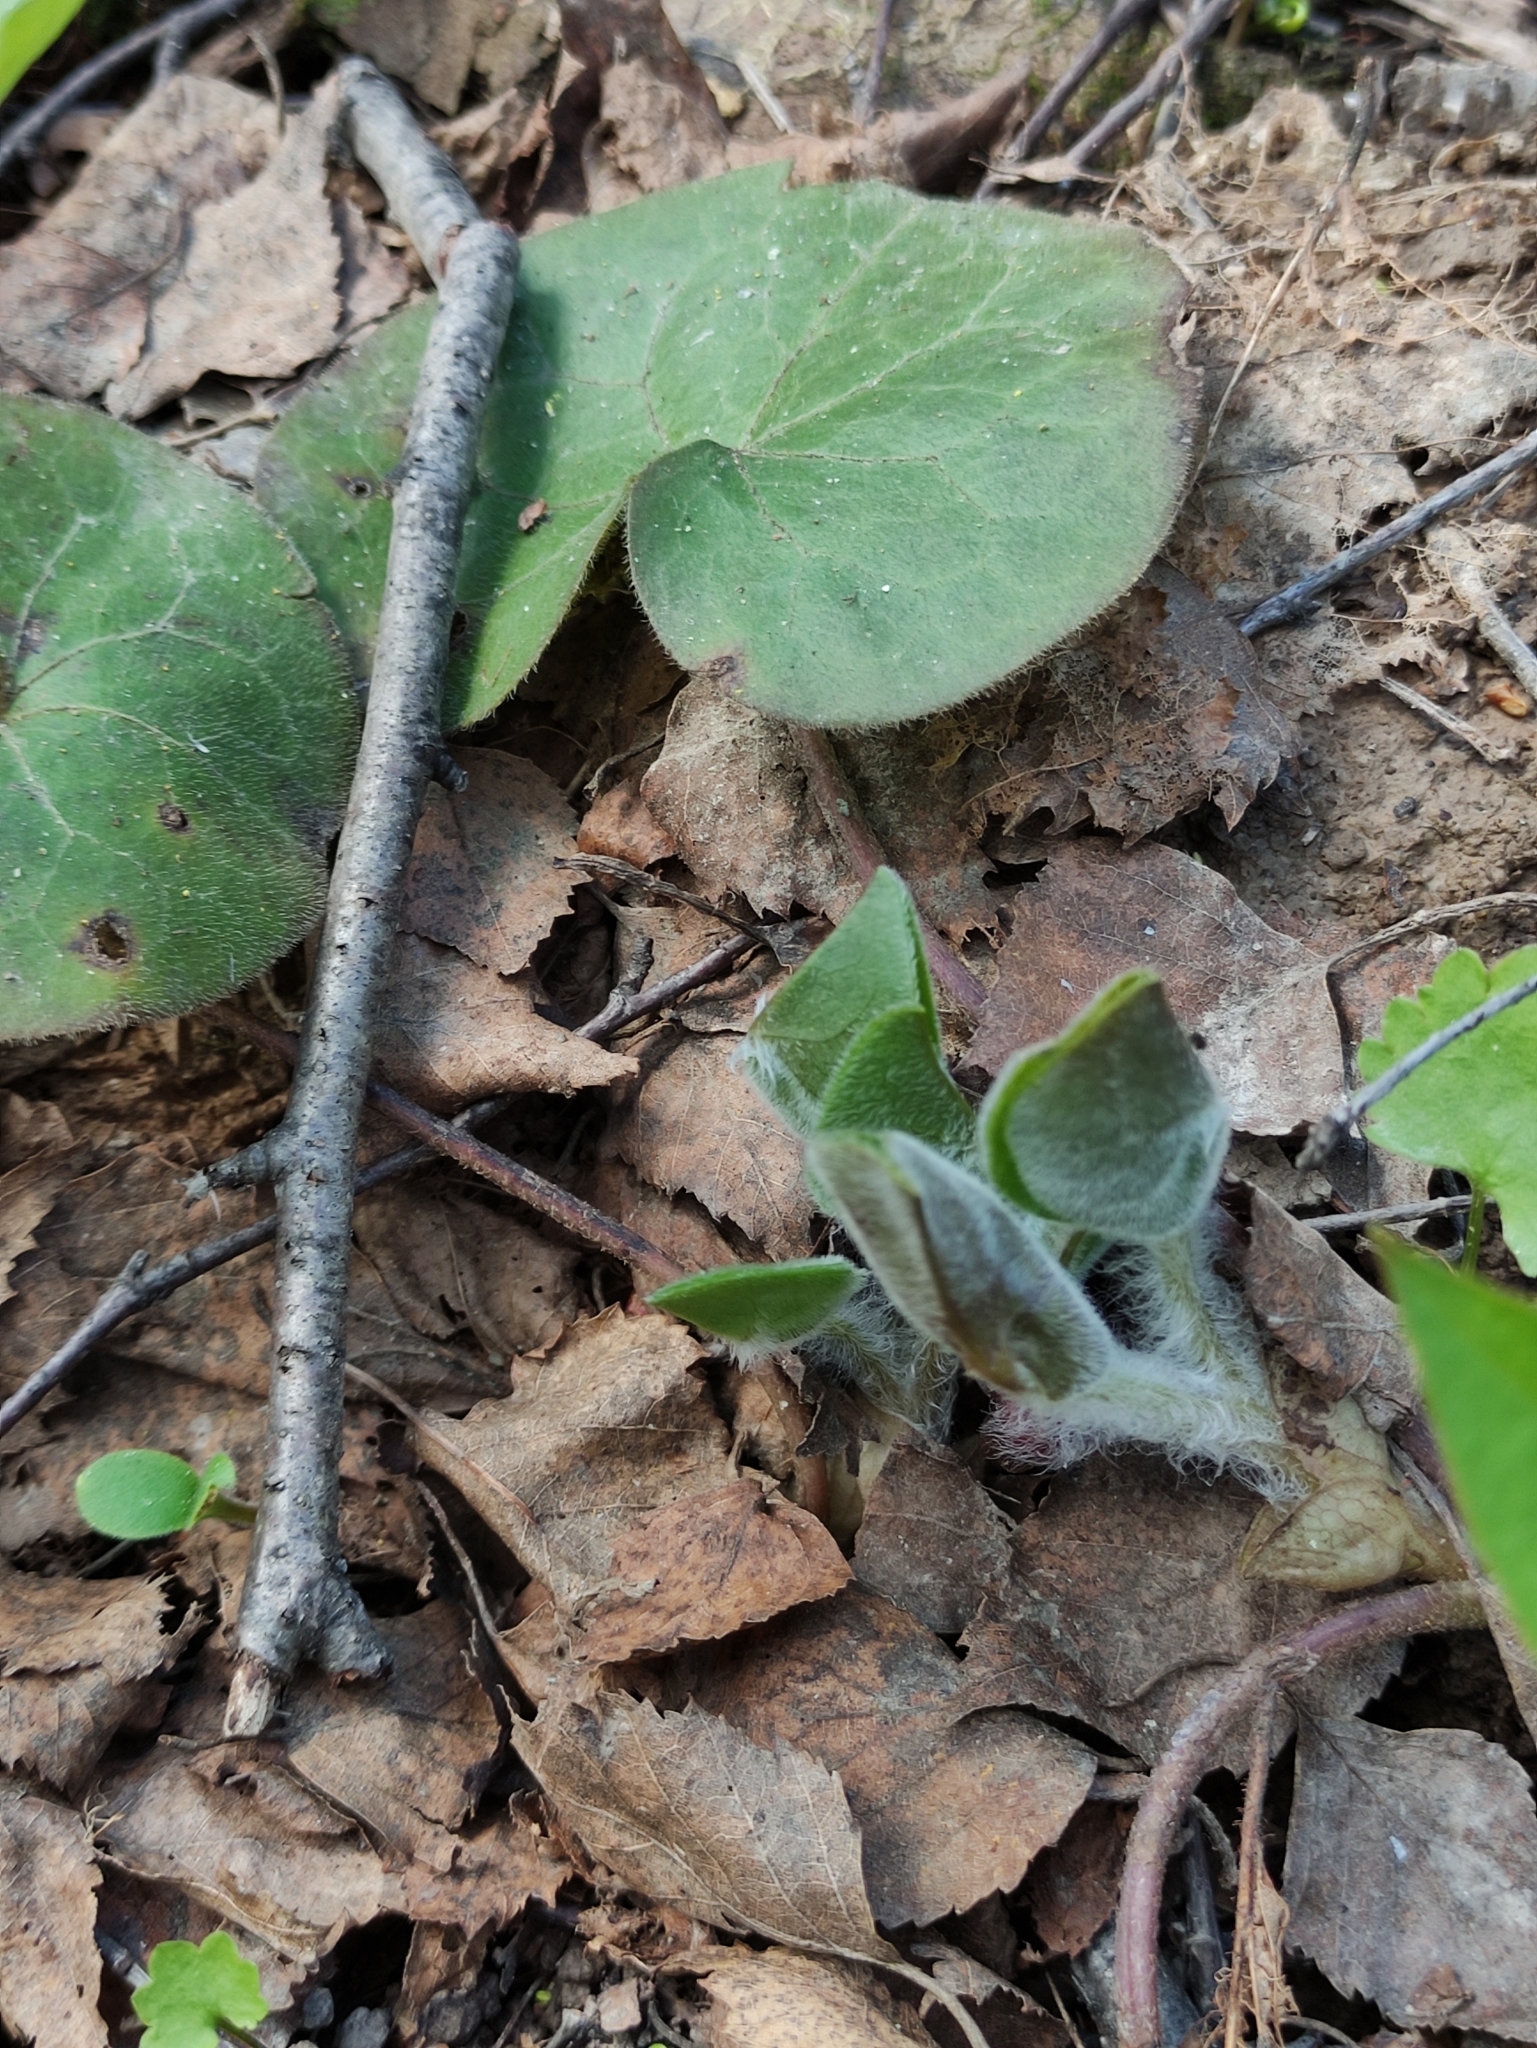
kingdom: Plantae
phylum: Tracheophyta
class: Magnoliopsida
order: Piperales
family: Aristolochiaceae
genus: Asarum
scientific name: Asarum europaeum
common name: Asarabacca
